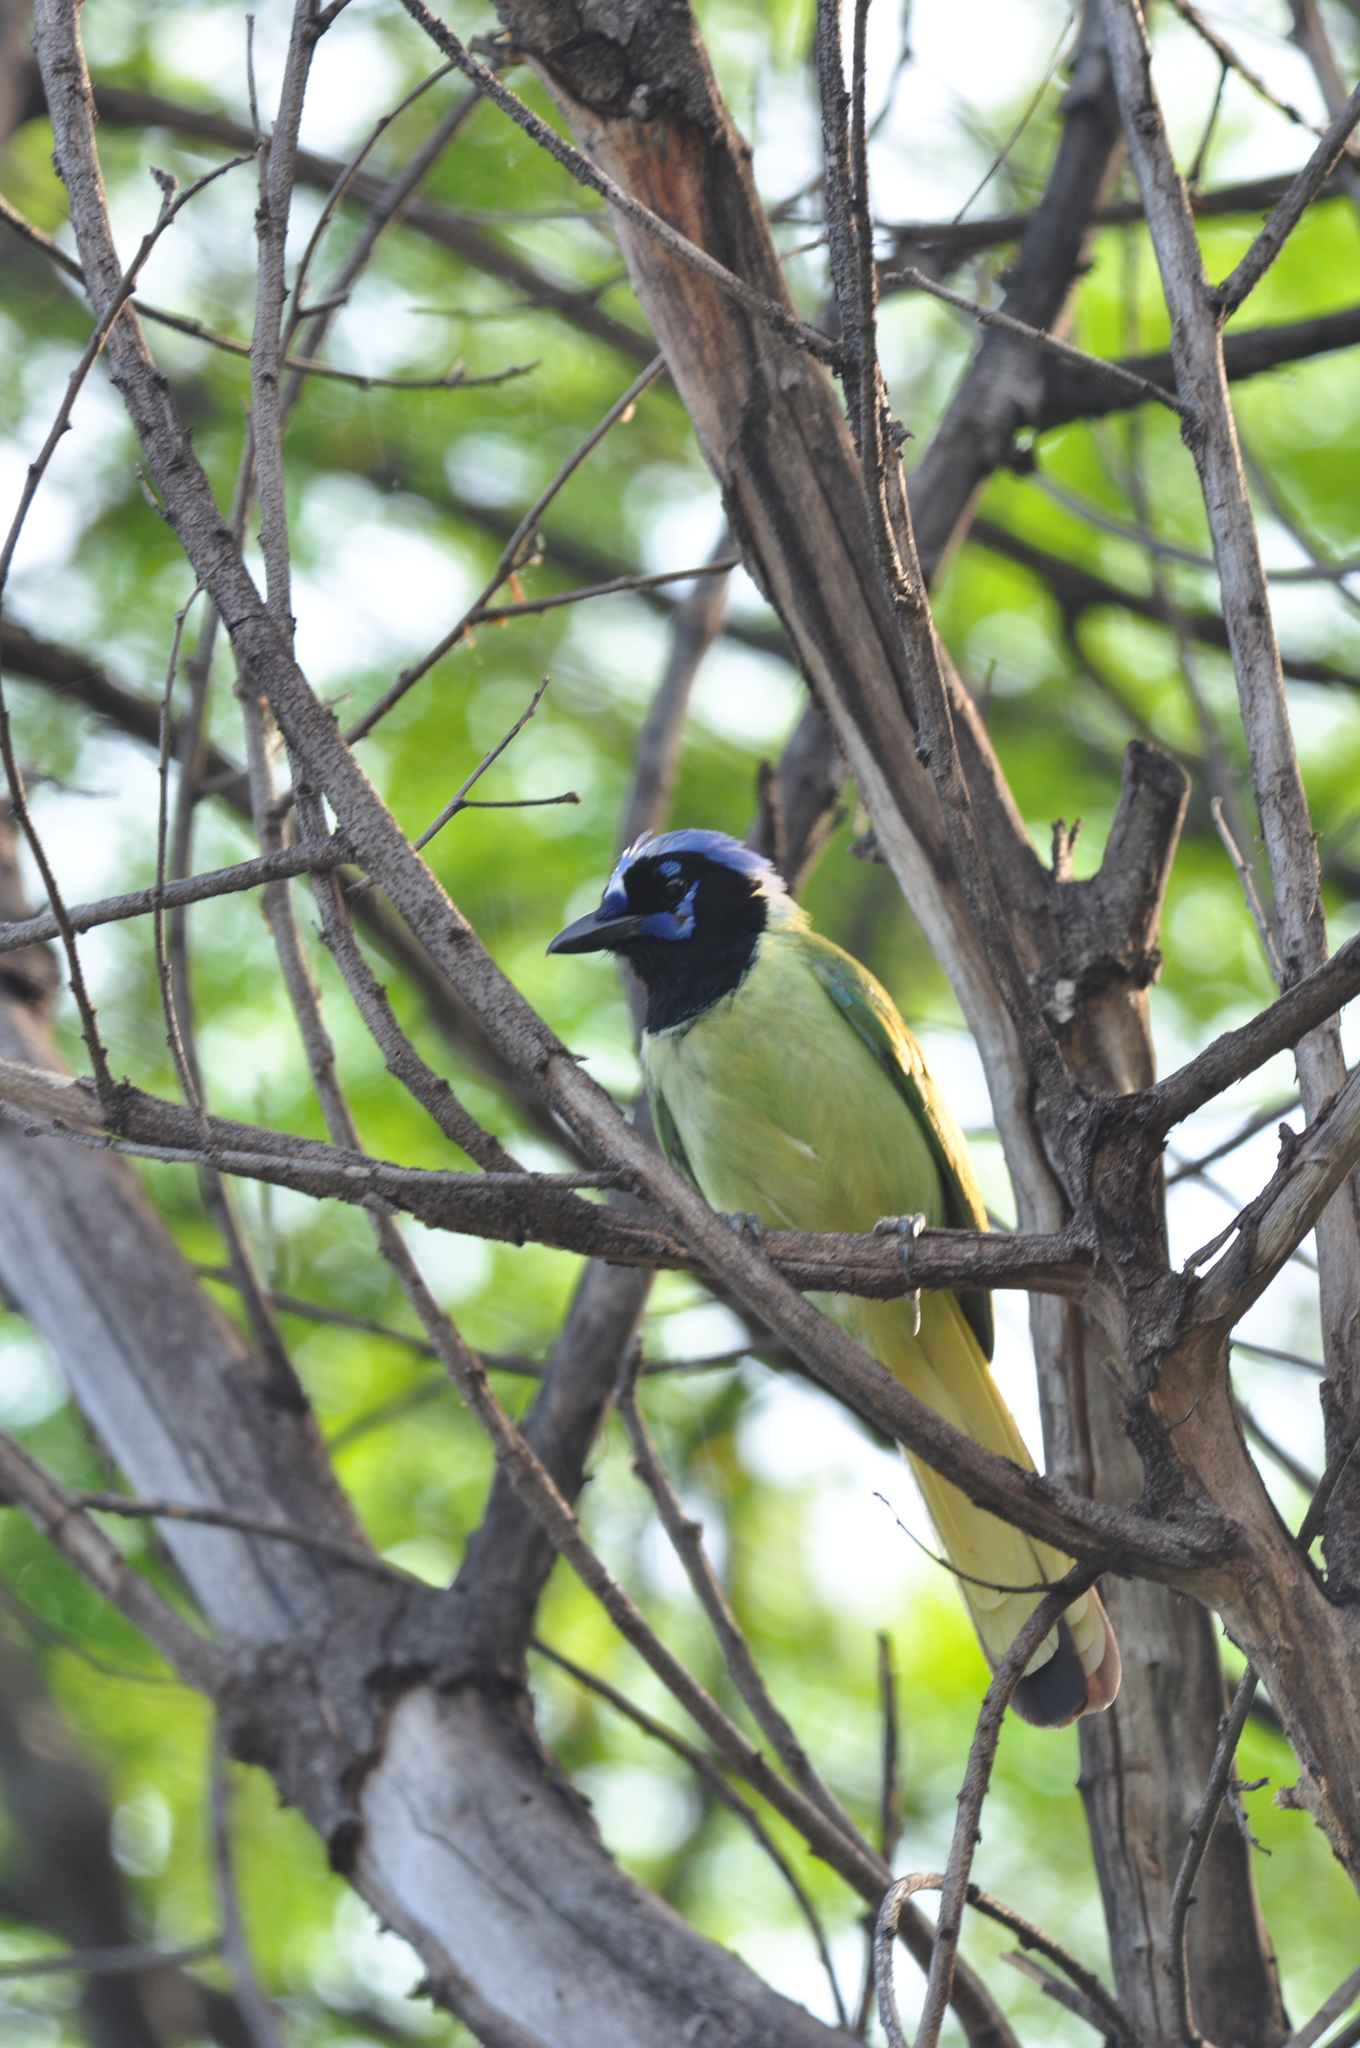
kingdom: Animalia
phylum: Chordata
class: Aves
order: Passeriformes
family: Corvidae
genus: Cyanocorax
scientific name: Cyanocorax yncas
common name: Green jay
